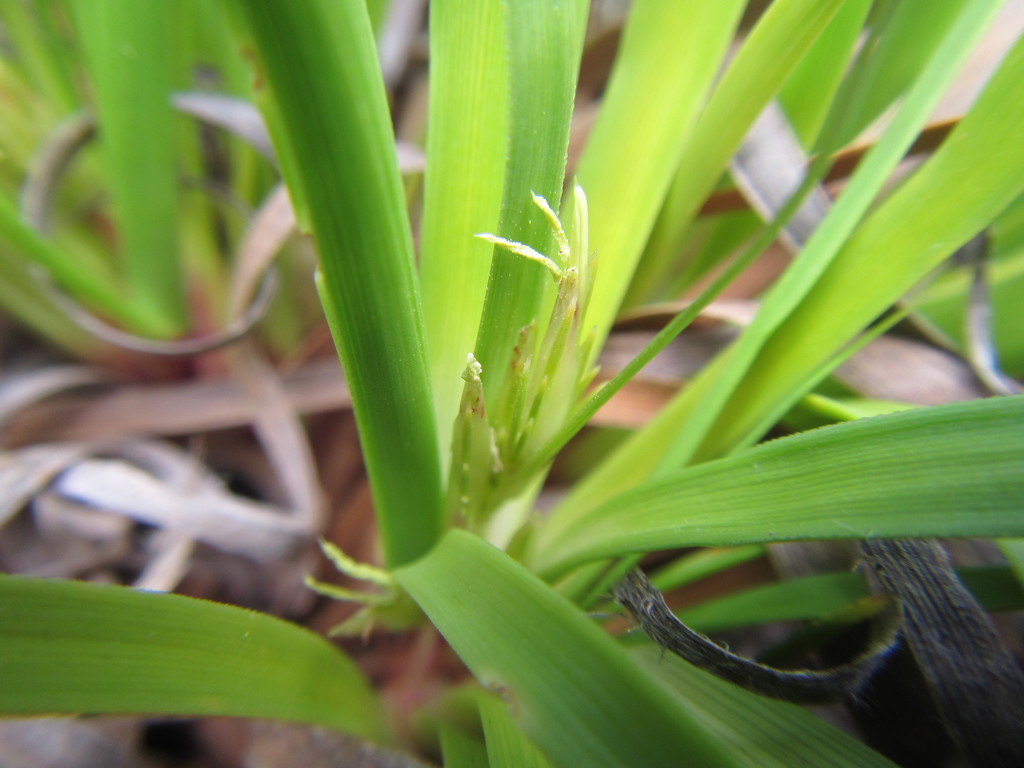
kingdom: Plantae
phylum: Tracheophyta
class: Liliopsida
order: Poales
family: Cyperaceae
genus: Capeobolus
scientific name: Capeobolus brevicaulis
